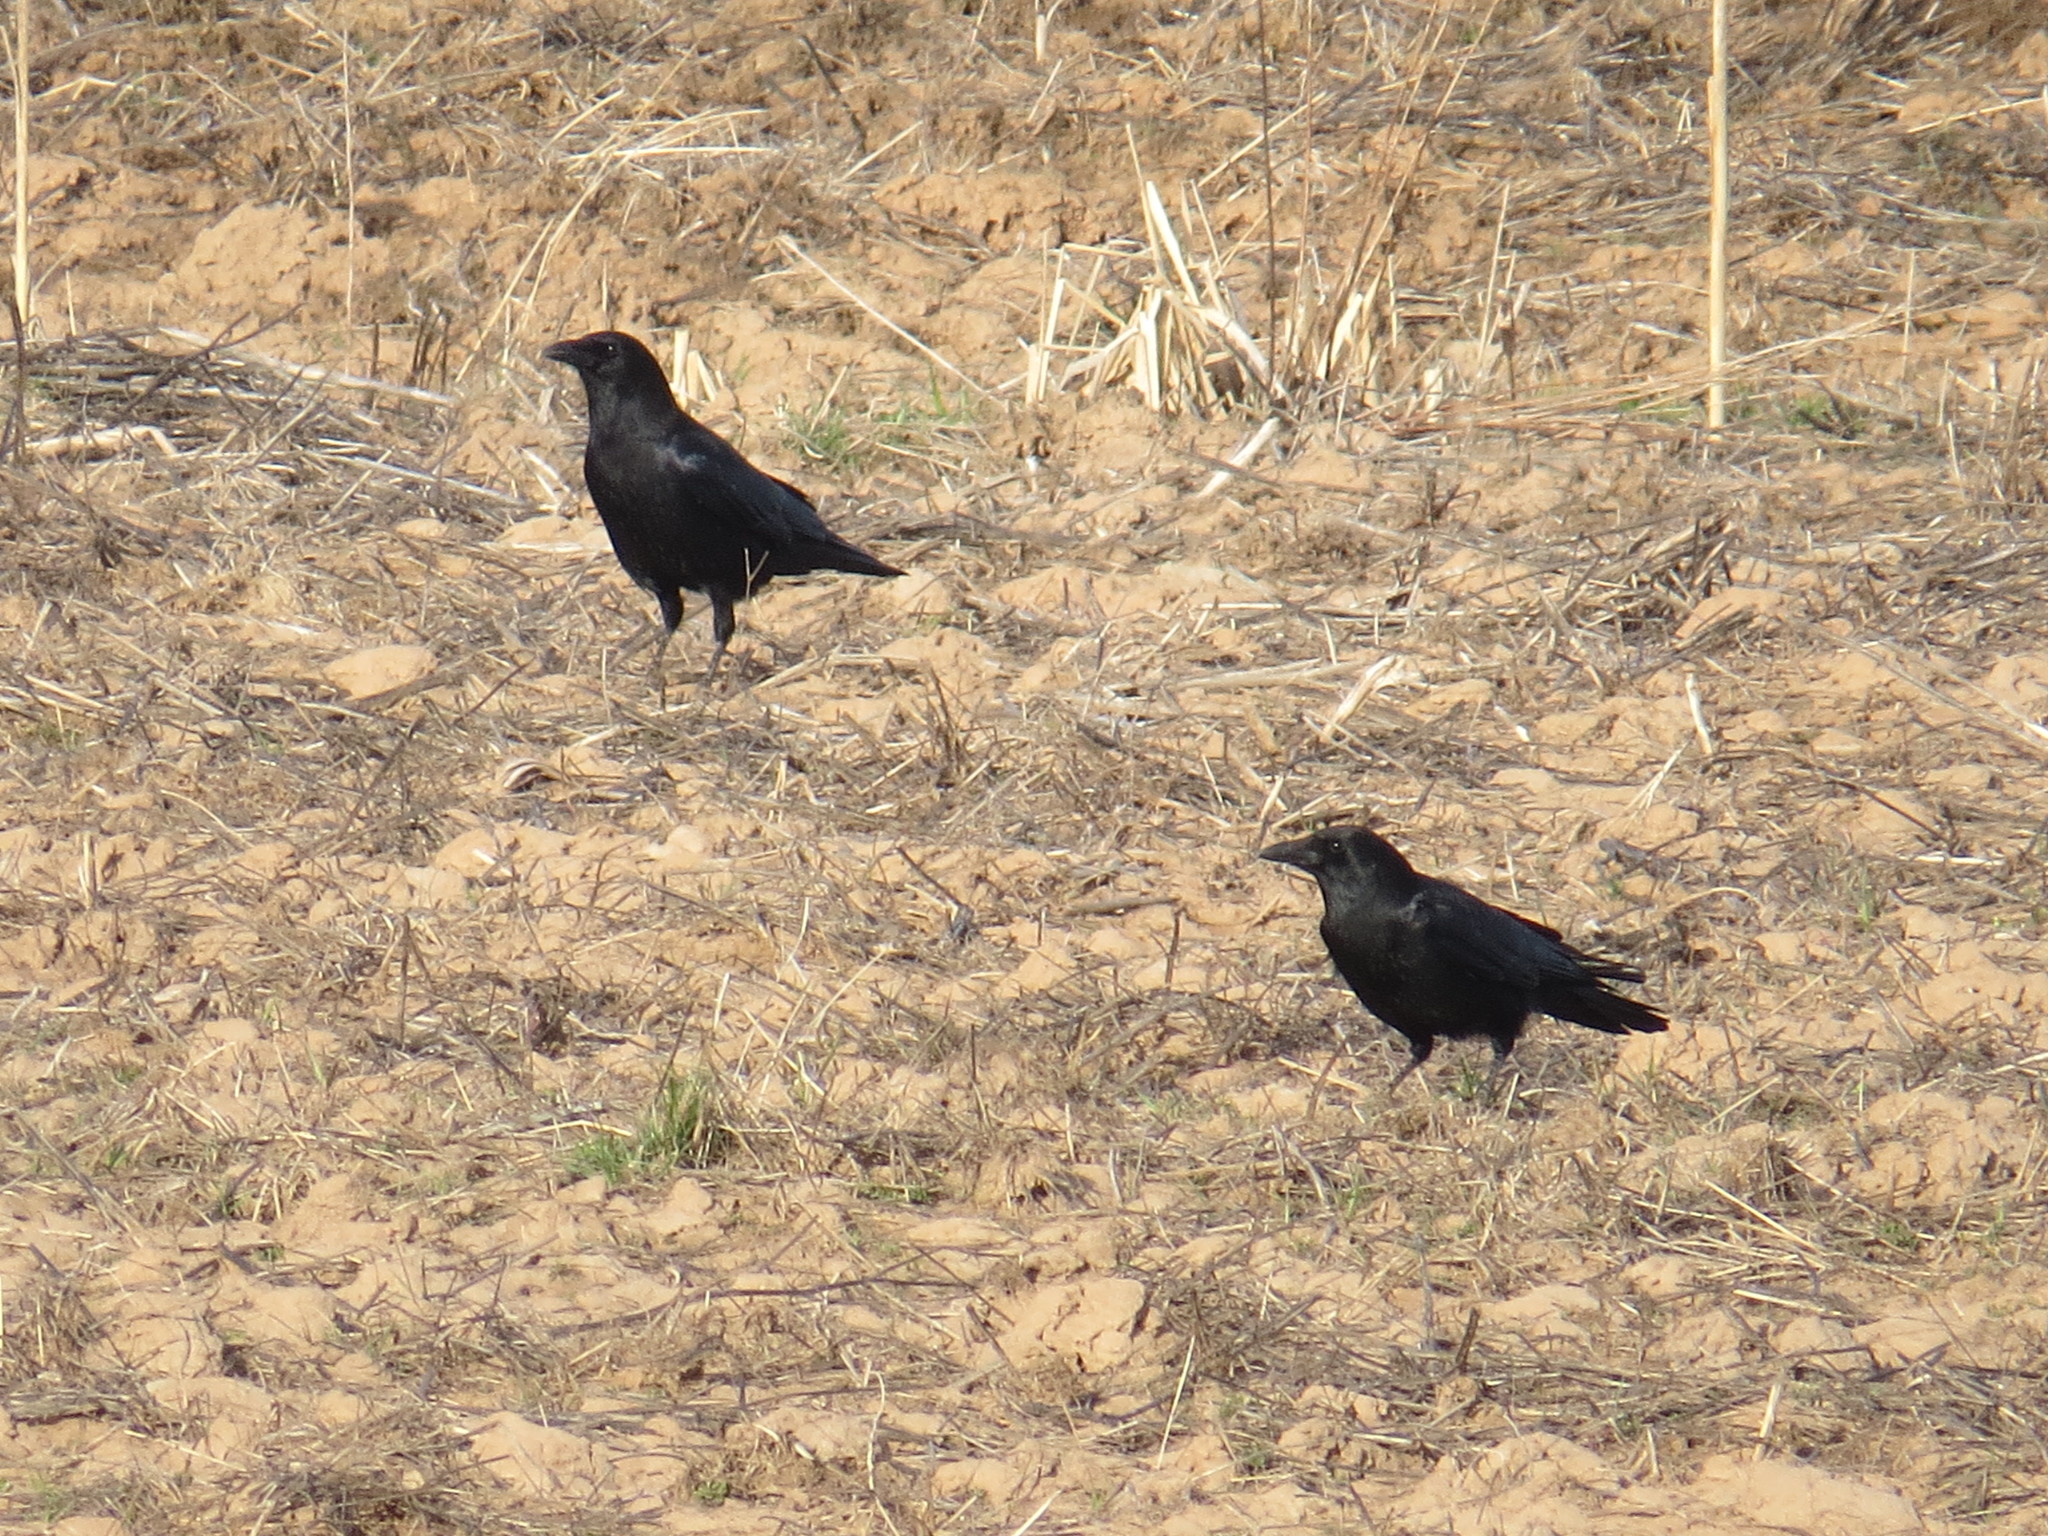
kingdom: Animalia
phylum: Chordata
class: Aves
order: Passeriformes
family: Corvidae
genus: Corvus
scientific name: Corvus brachyrhynchos
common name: American crow
